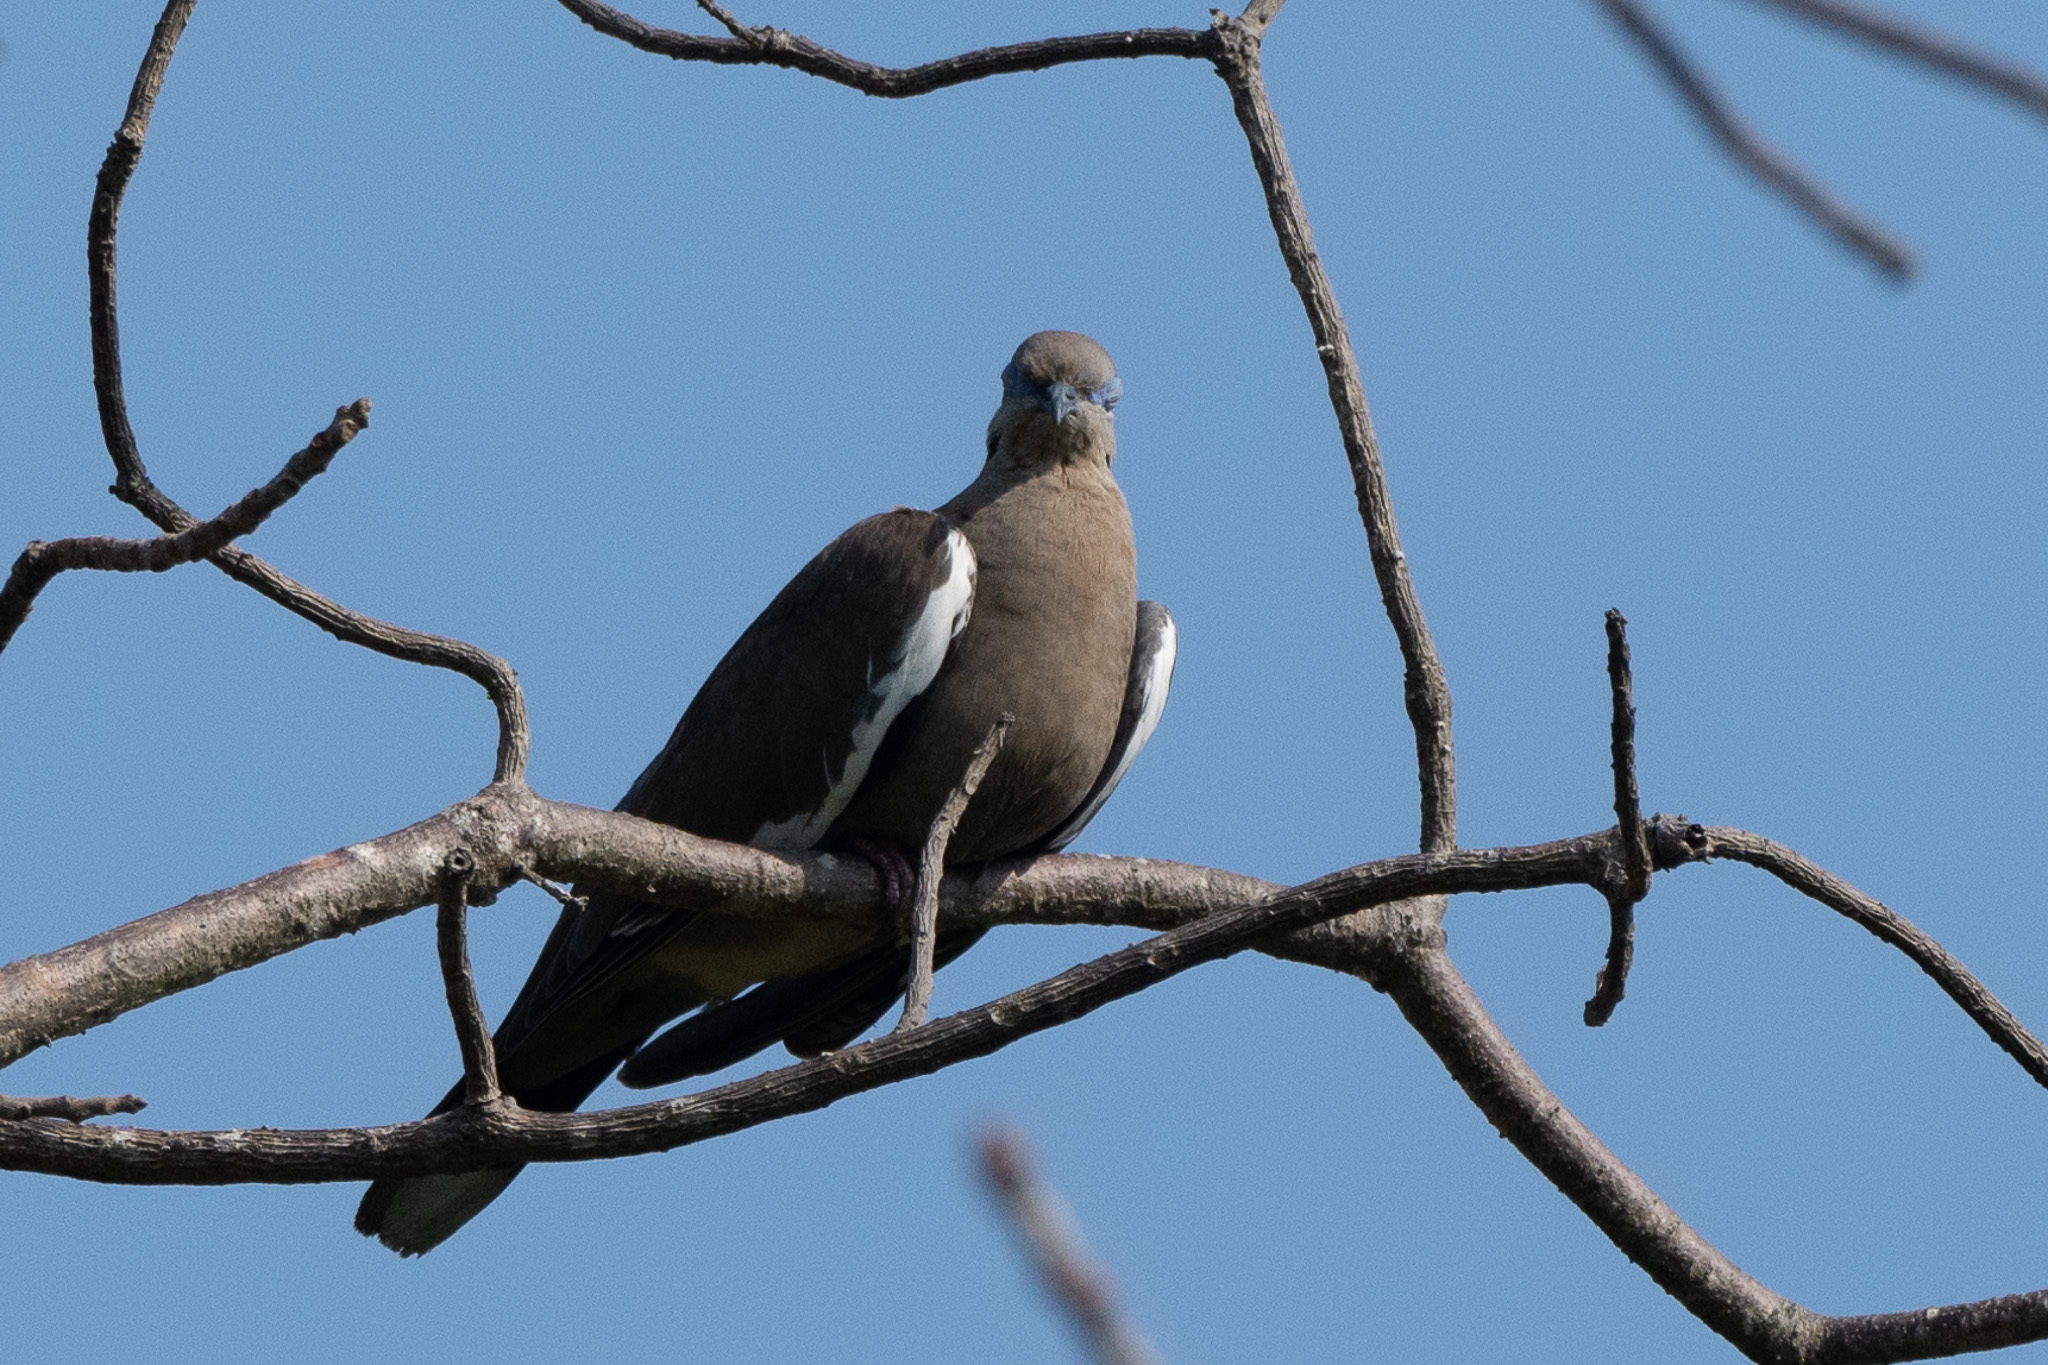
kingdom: Animalia
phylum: Chordata
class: Aves
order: Columbiformes
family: Columbidae
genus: Zenaida
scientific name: Zenaida asiatica
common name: White-winged dove
